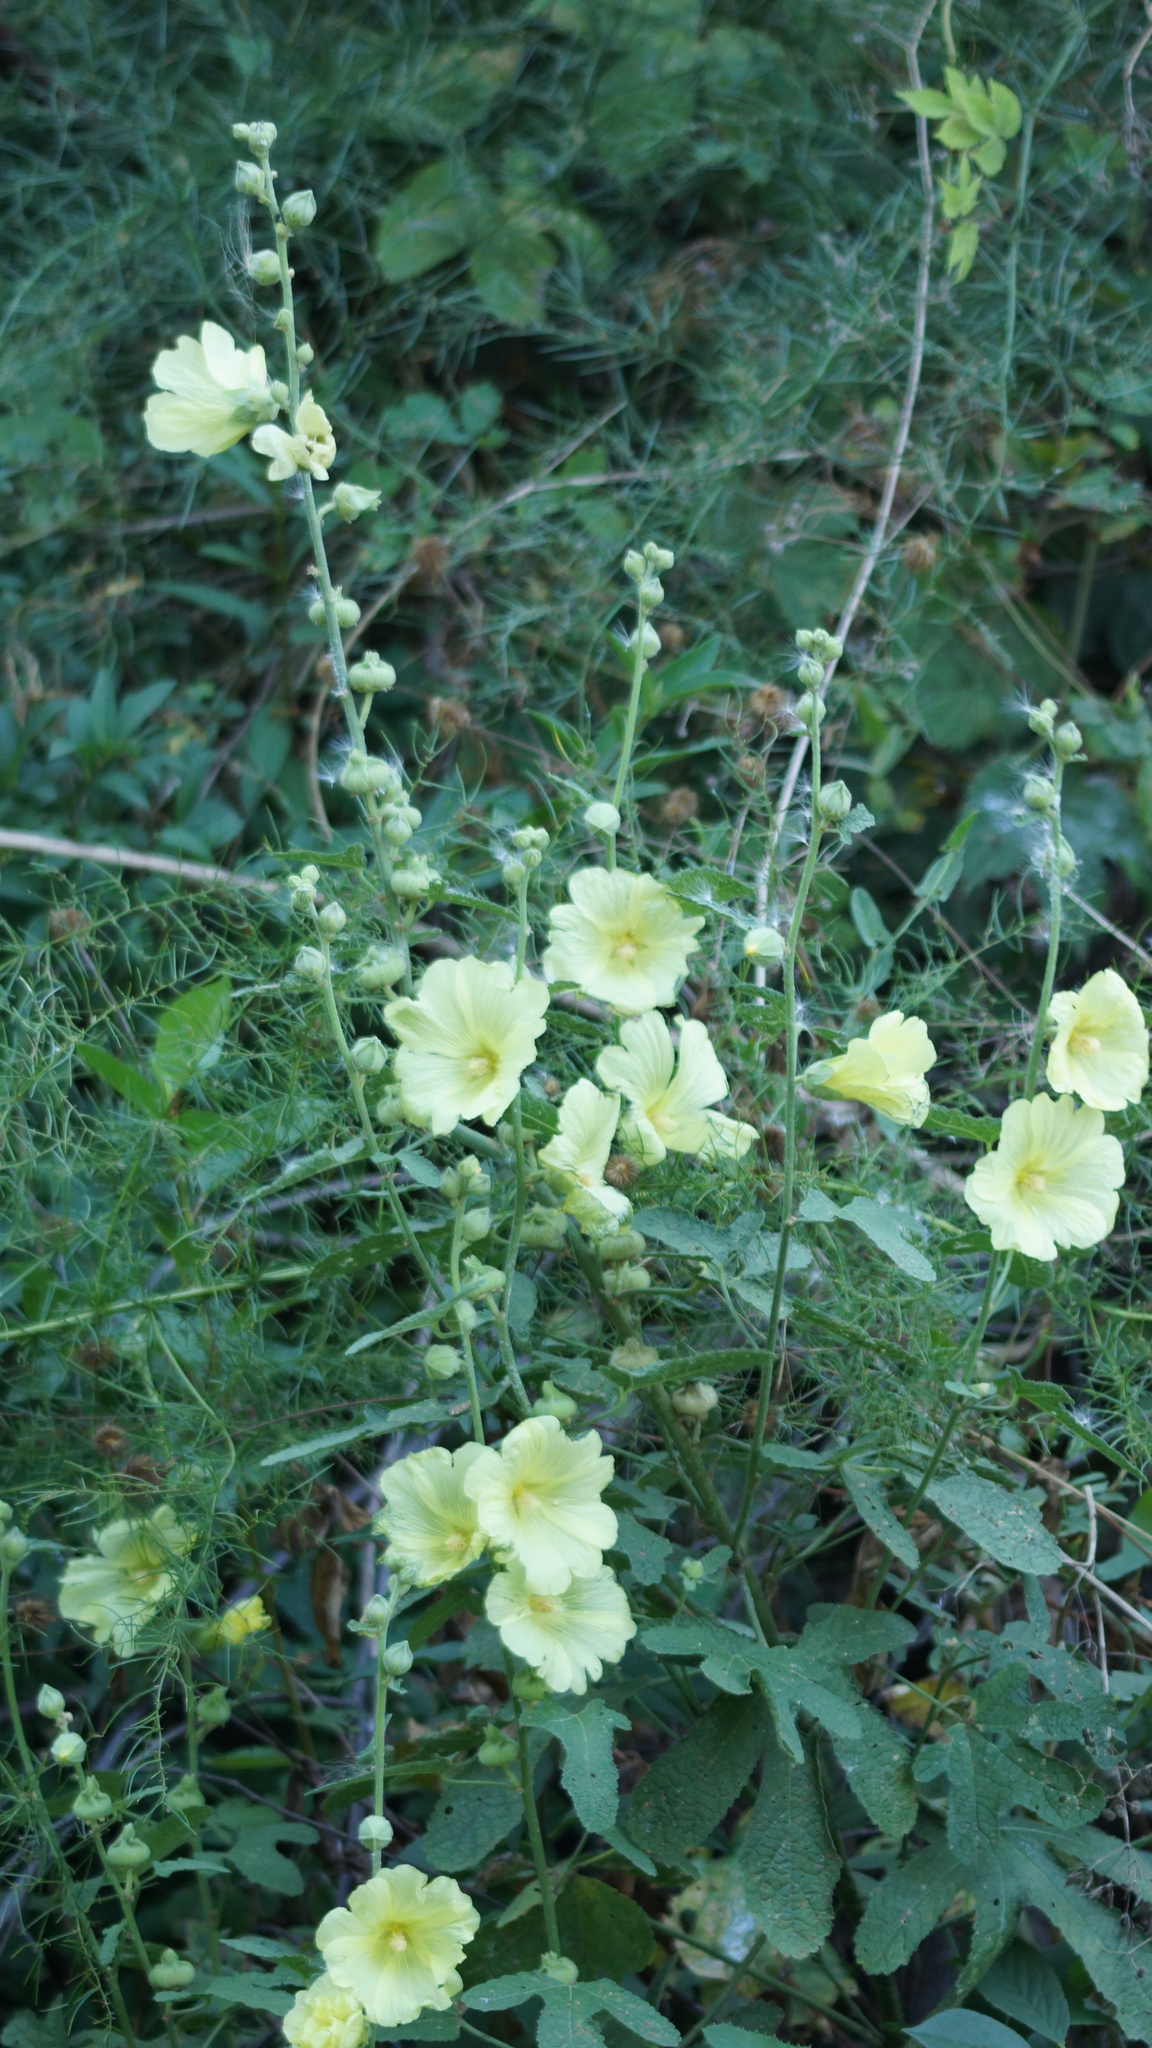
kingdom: Plantae
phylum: Tracheophyta
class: Magnoliopsida
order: Malvales
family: Malvaceae
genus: Alcea
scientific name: Alcea rugosa
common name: Russian hollyhock
